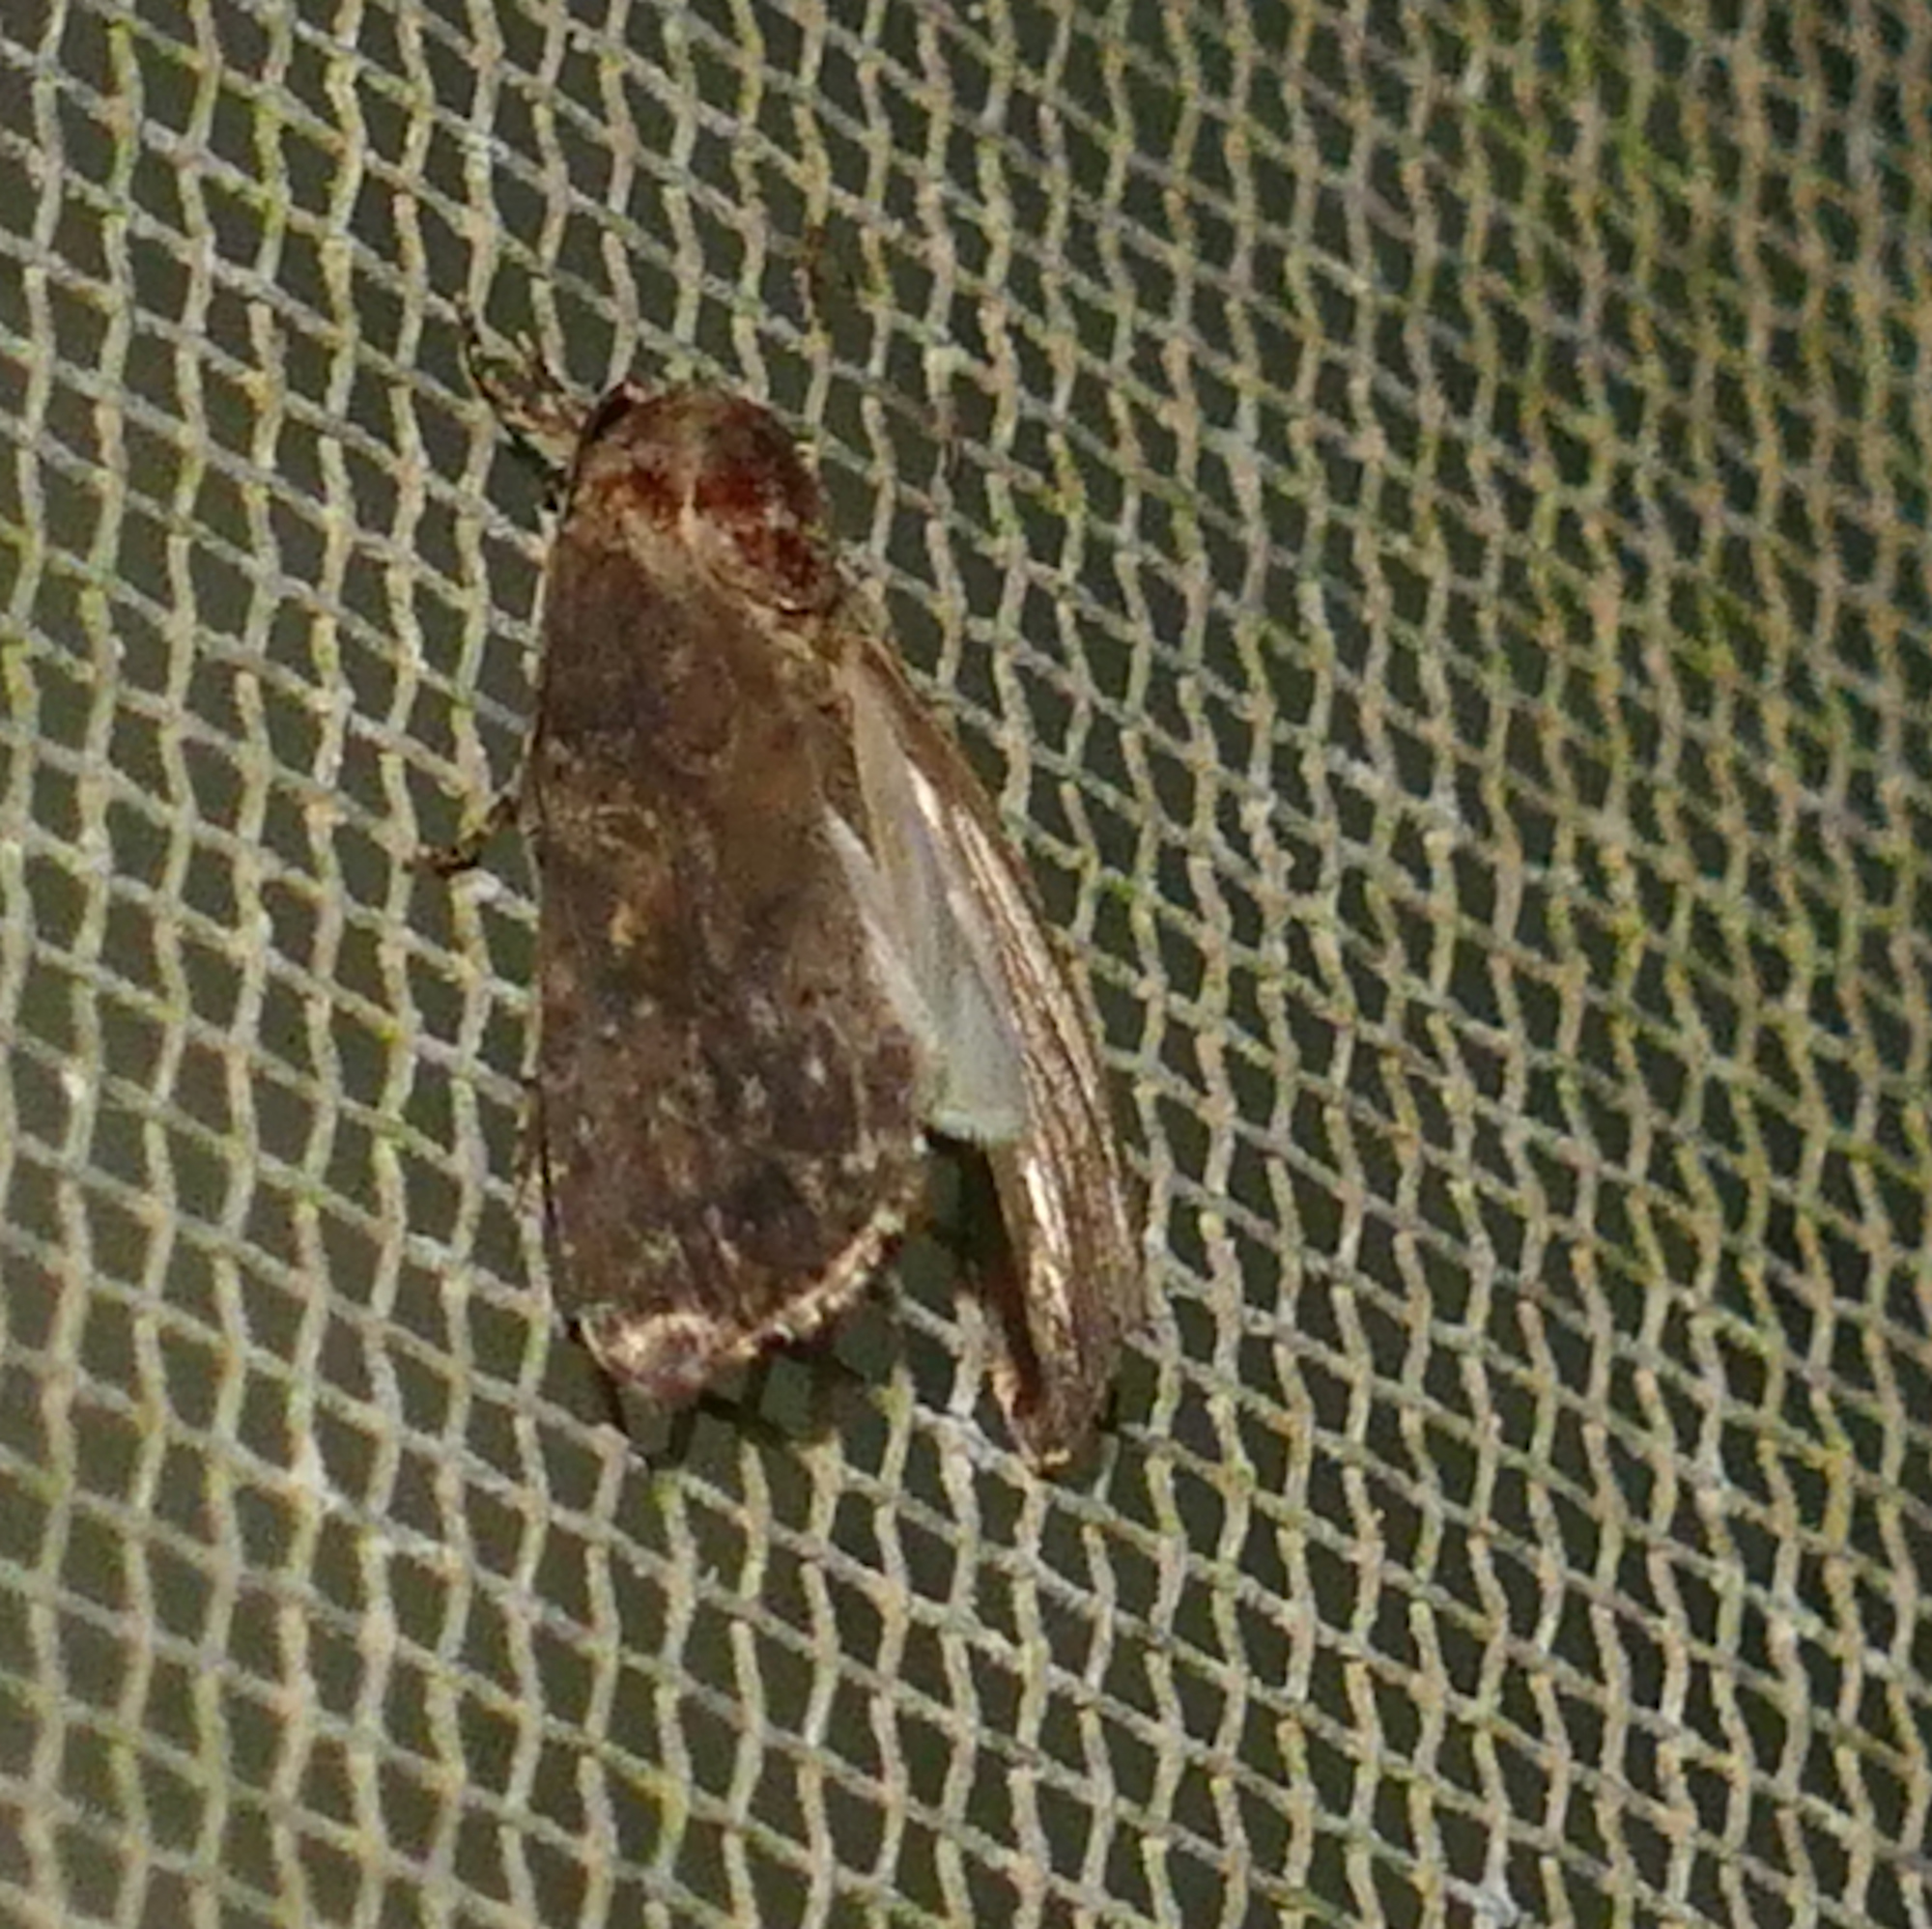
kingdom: Animalia
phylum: Arthropoda
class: Insecta
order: Lepidoptera
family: Noctuidae
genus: Spodoptera
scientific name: Spodoptera frugiperda
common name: Fall armyworm
